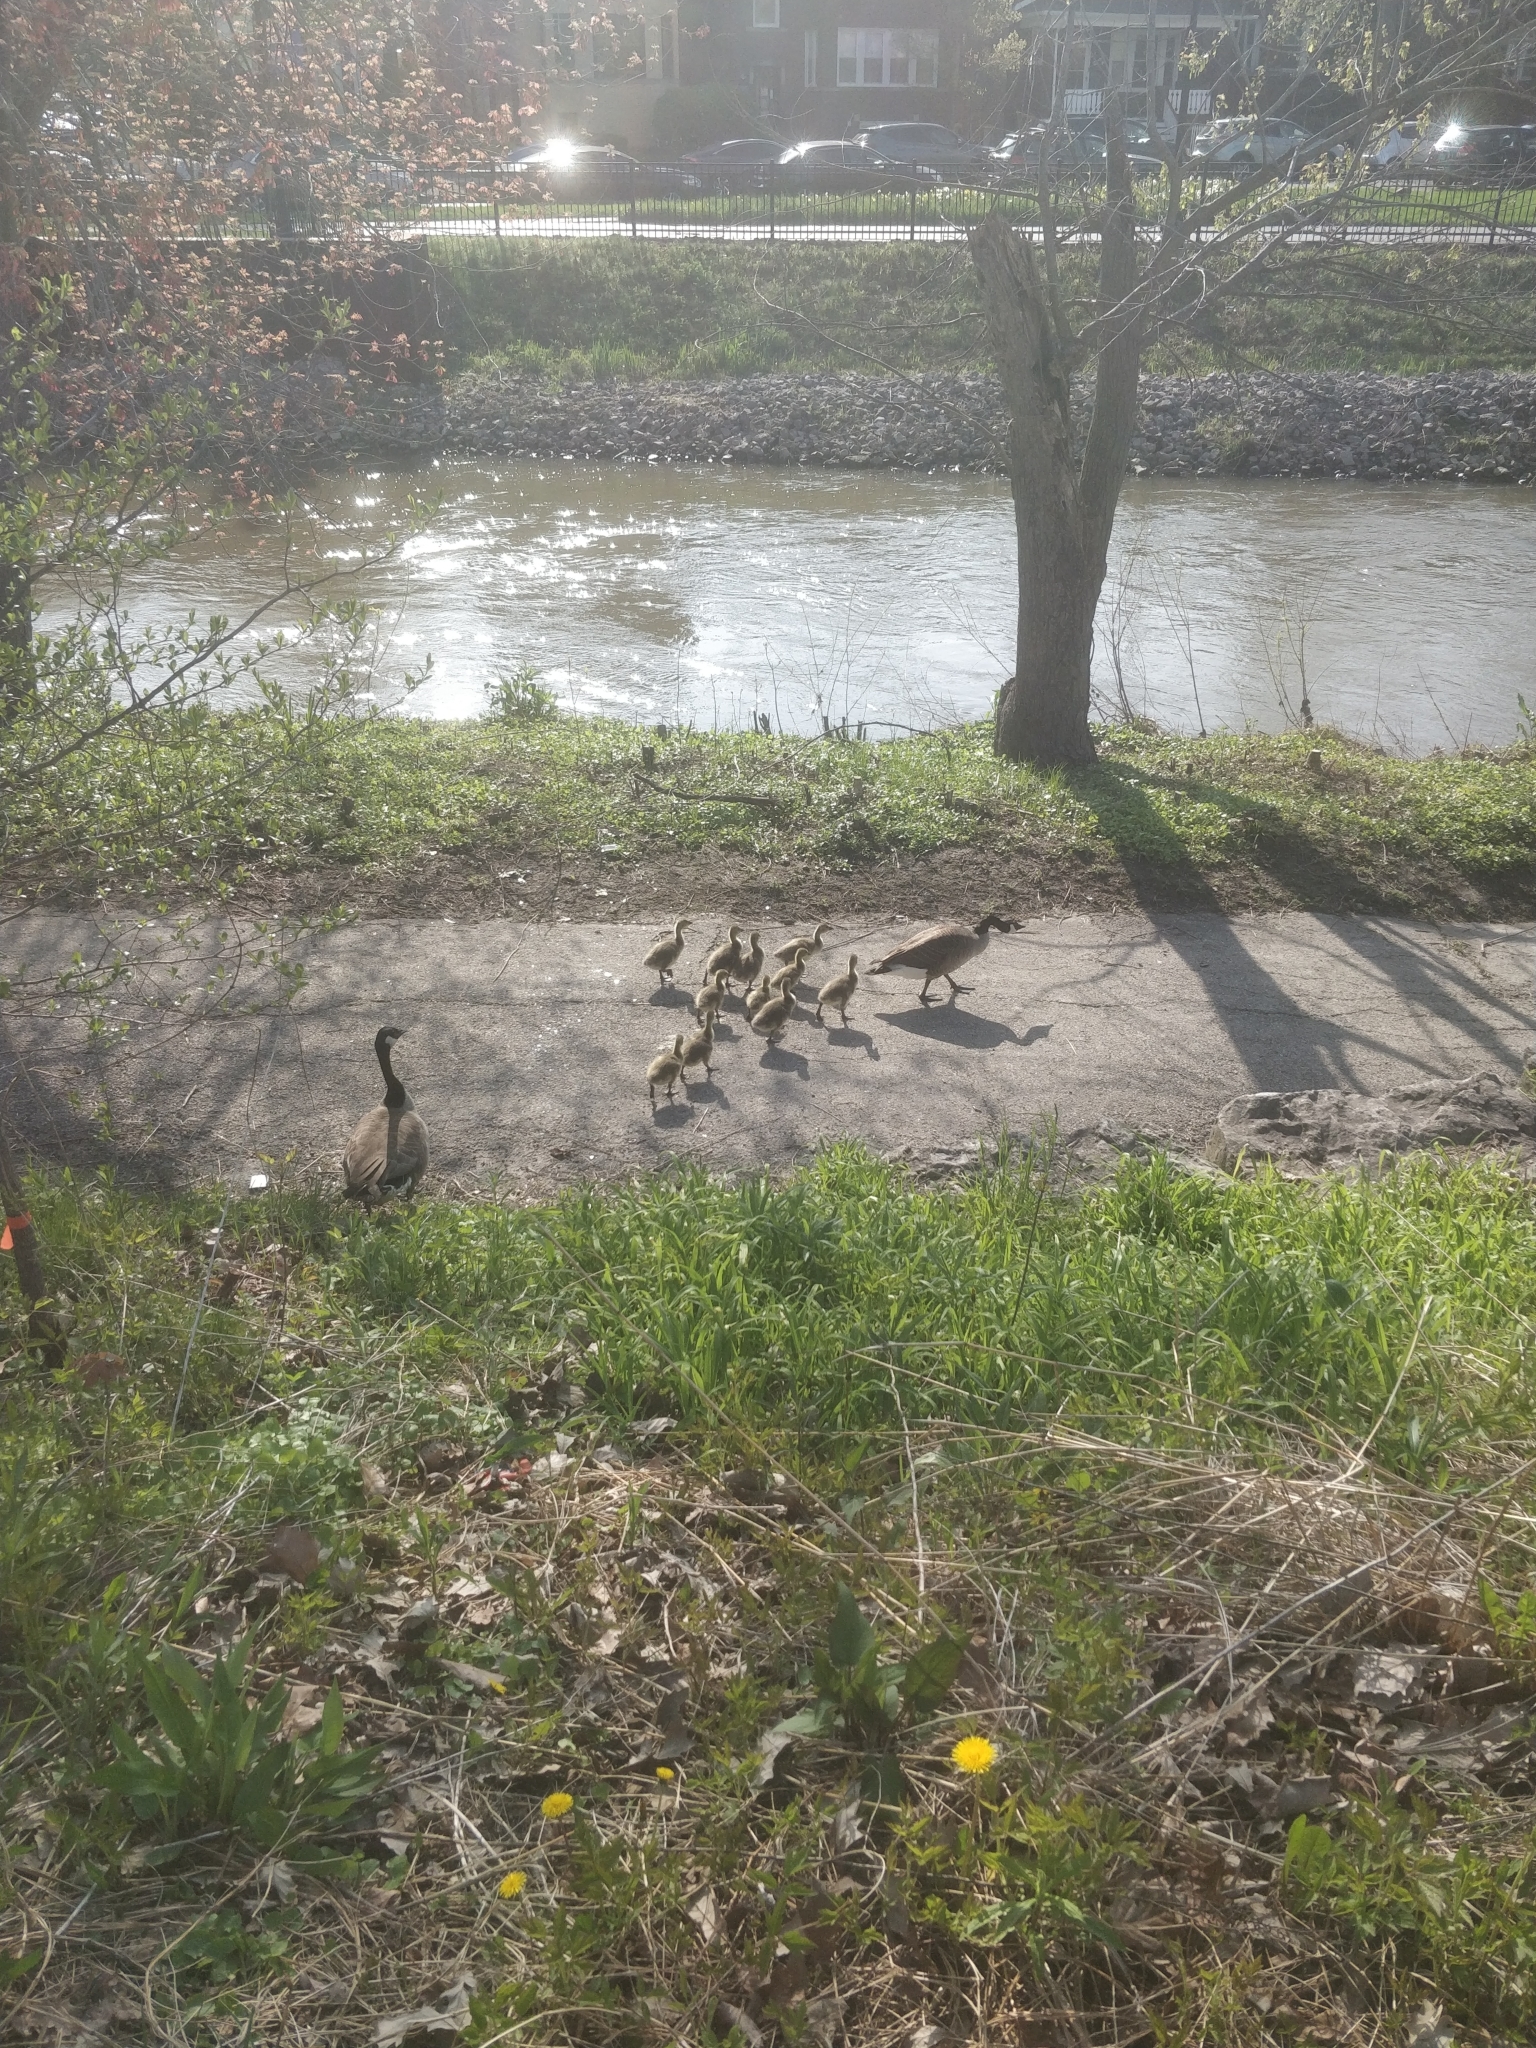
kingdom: Animalia
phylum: Chordata
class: Aves
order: Anseriformes
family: Anatidae
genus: Branta
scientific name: Branta canadensis
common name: Canada goose
